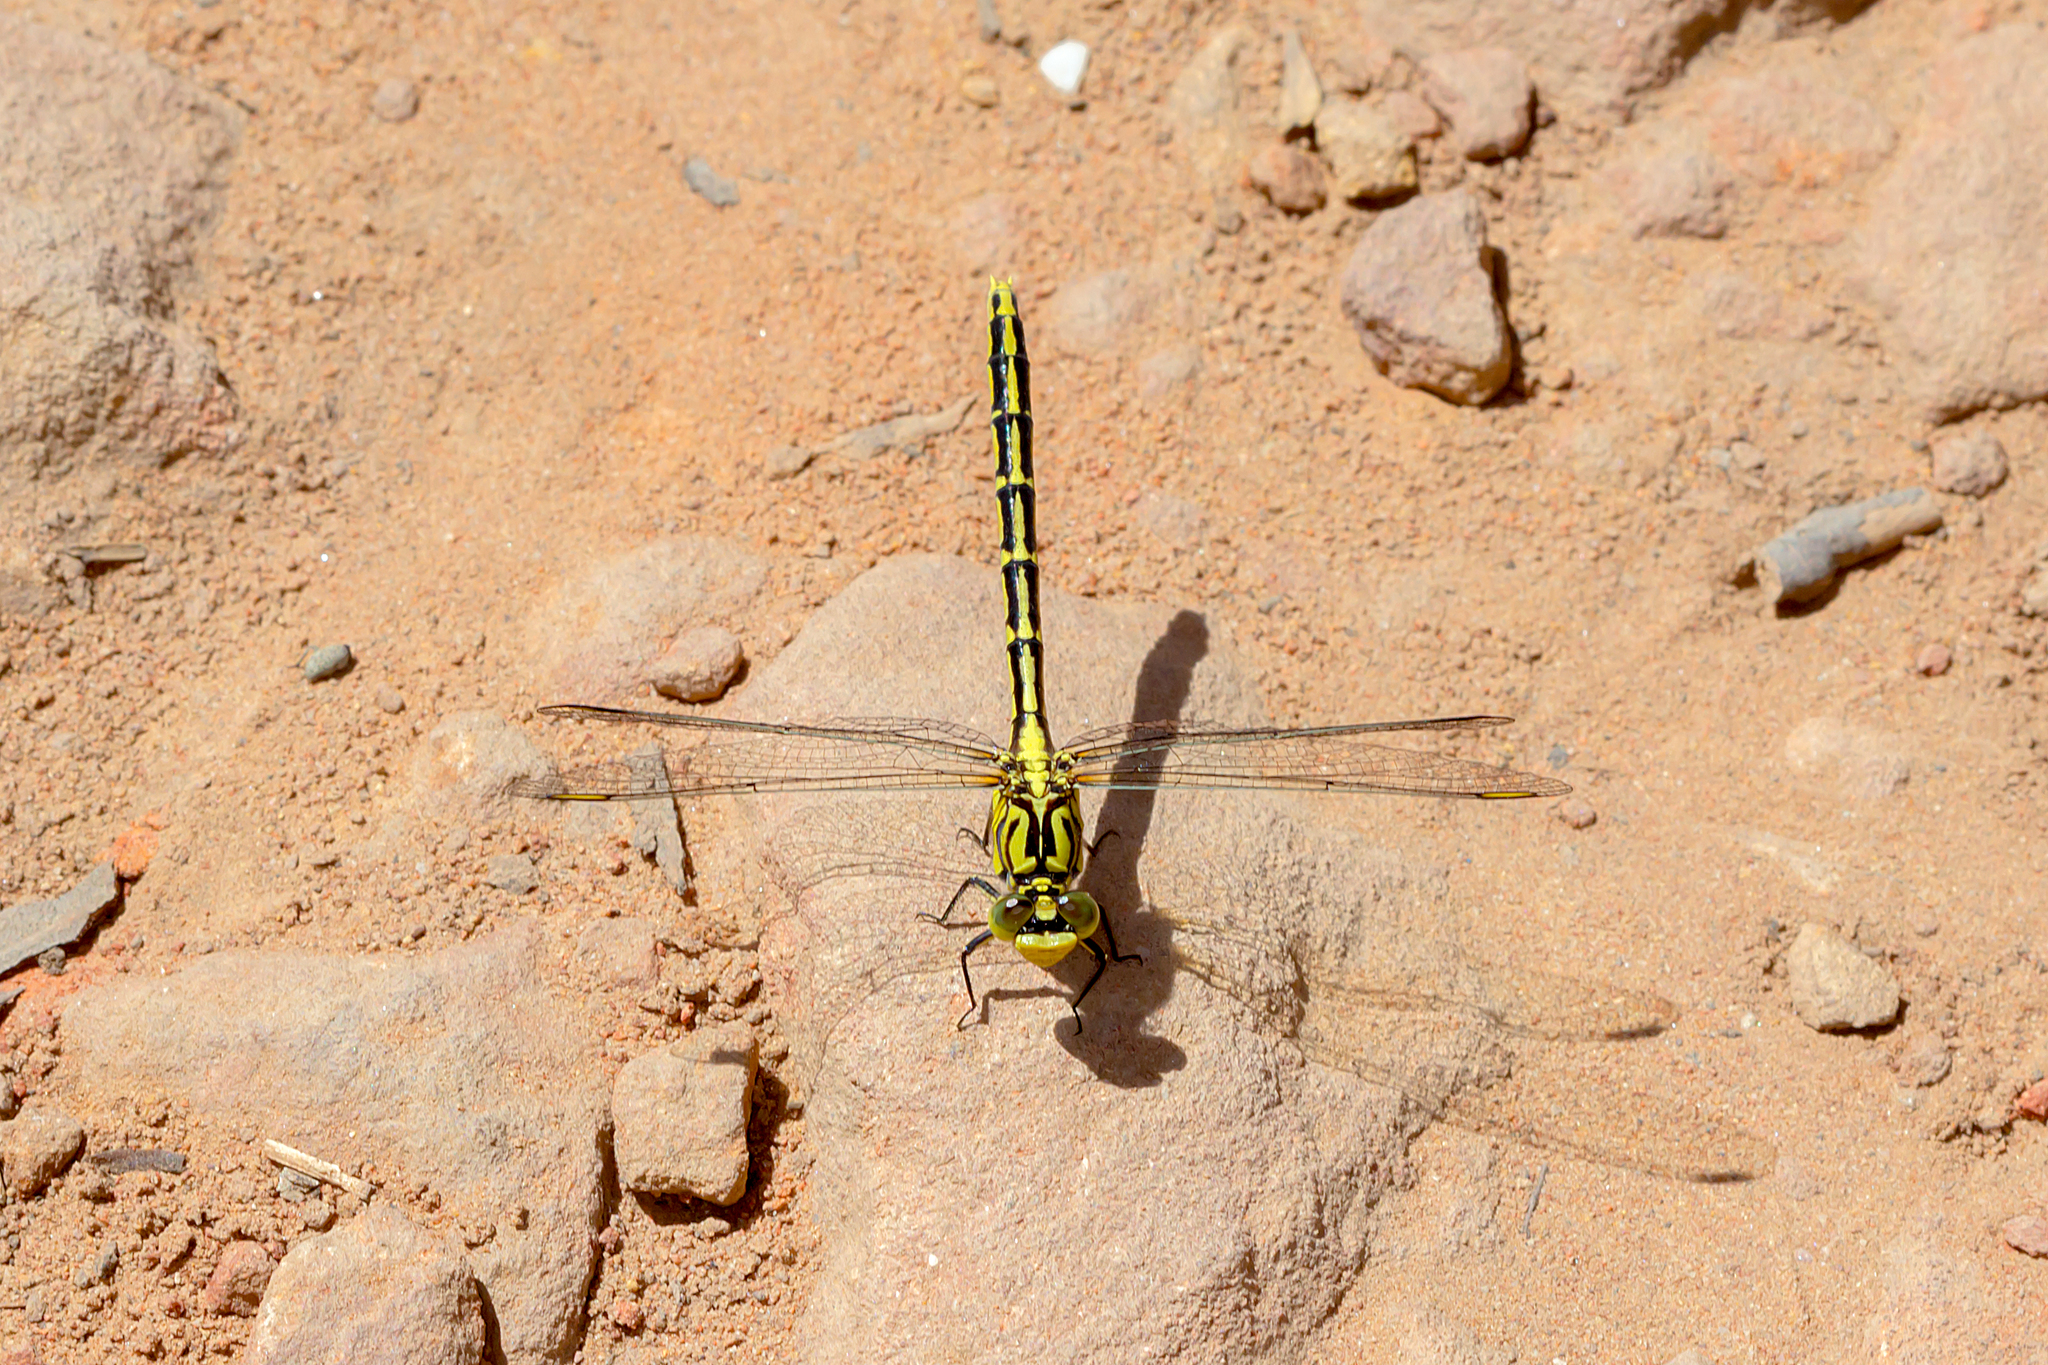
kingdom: Animalia
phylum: Arthropoda
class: Insecta
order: Odonata
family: Gomphidae
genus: Austrogomphus
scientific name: Austrogomphus guerini
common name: Yellow-striped hunter
